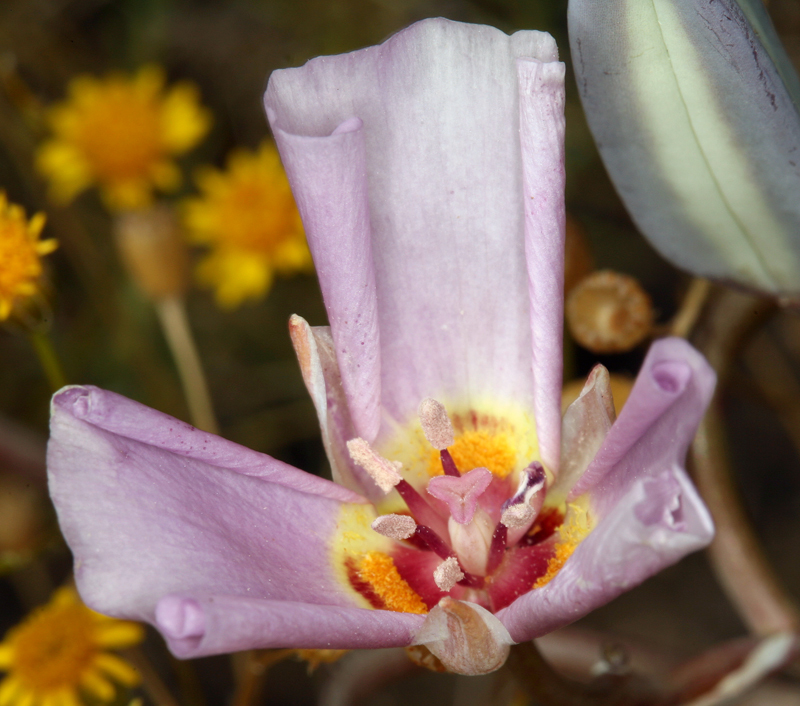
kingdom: Plantae
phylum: Tracheophyta
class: Liliopsida
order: Liliales
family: Liliaceae
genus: Calochortus
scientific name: Calochortus flexuosus
